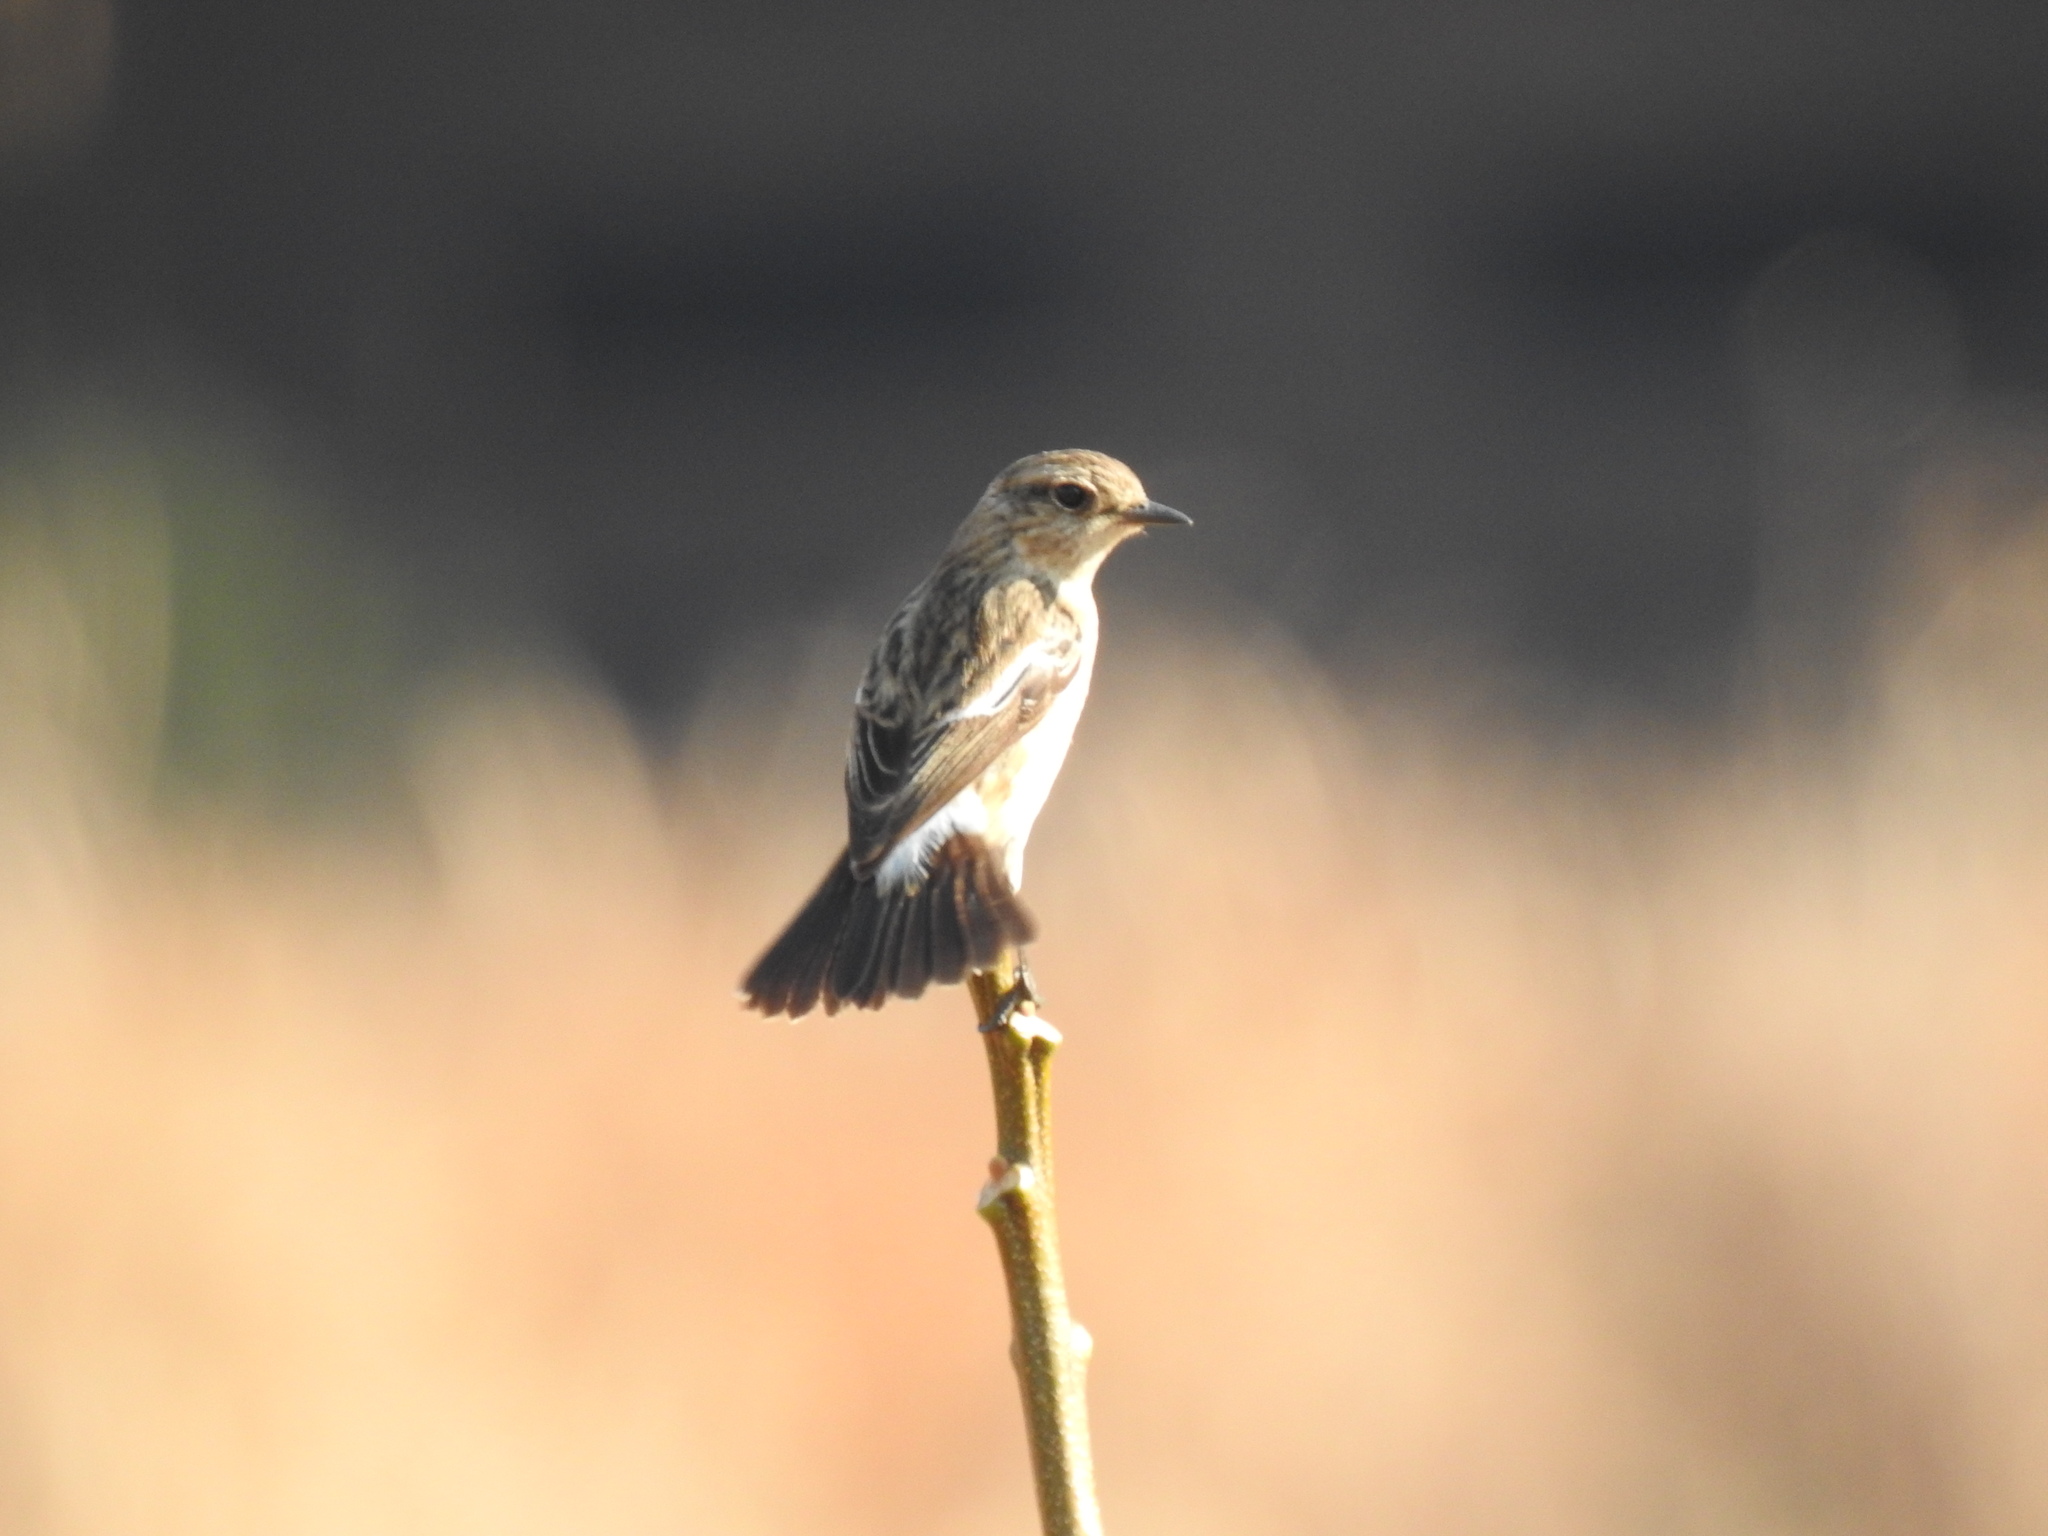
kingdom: Animalia
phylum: Chordata
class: Aves
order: Passeriformes
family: Muscicapidae
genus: Saxicola
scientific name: Saxicola torquatus
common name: African stonechat
